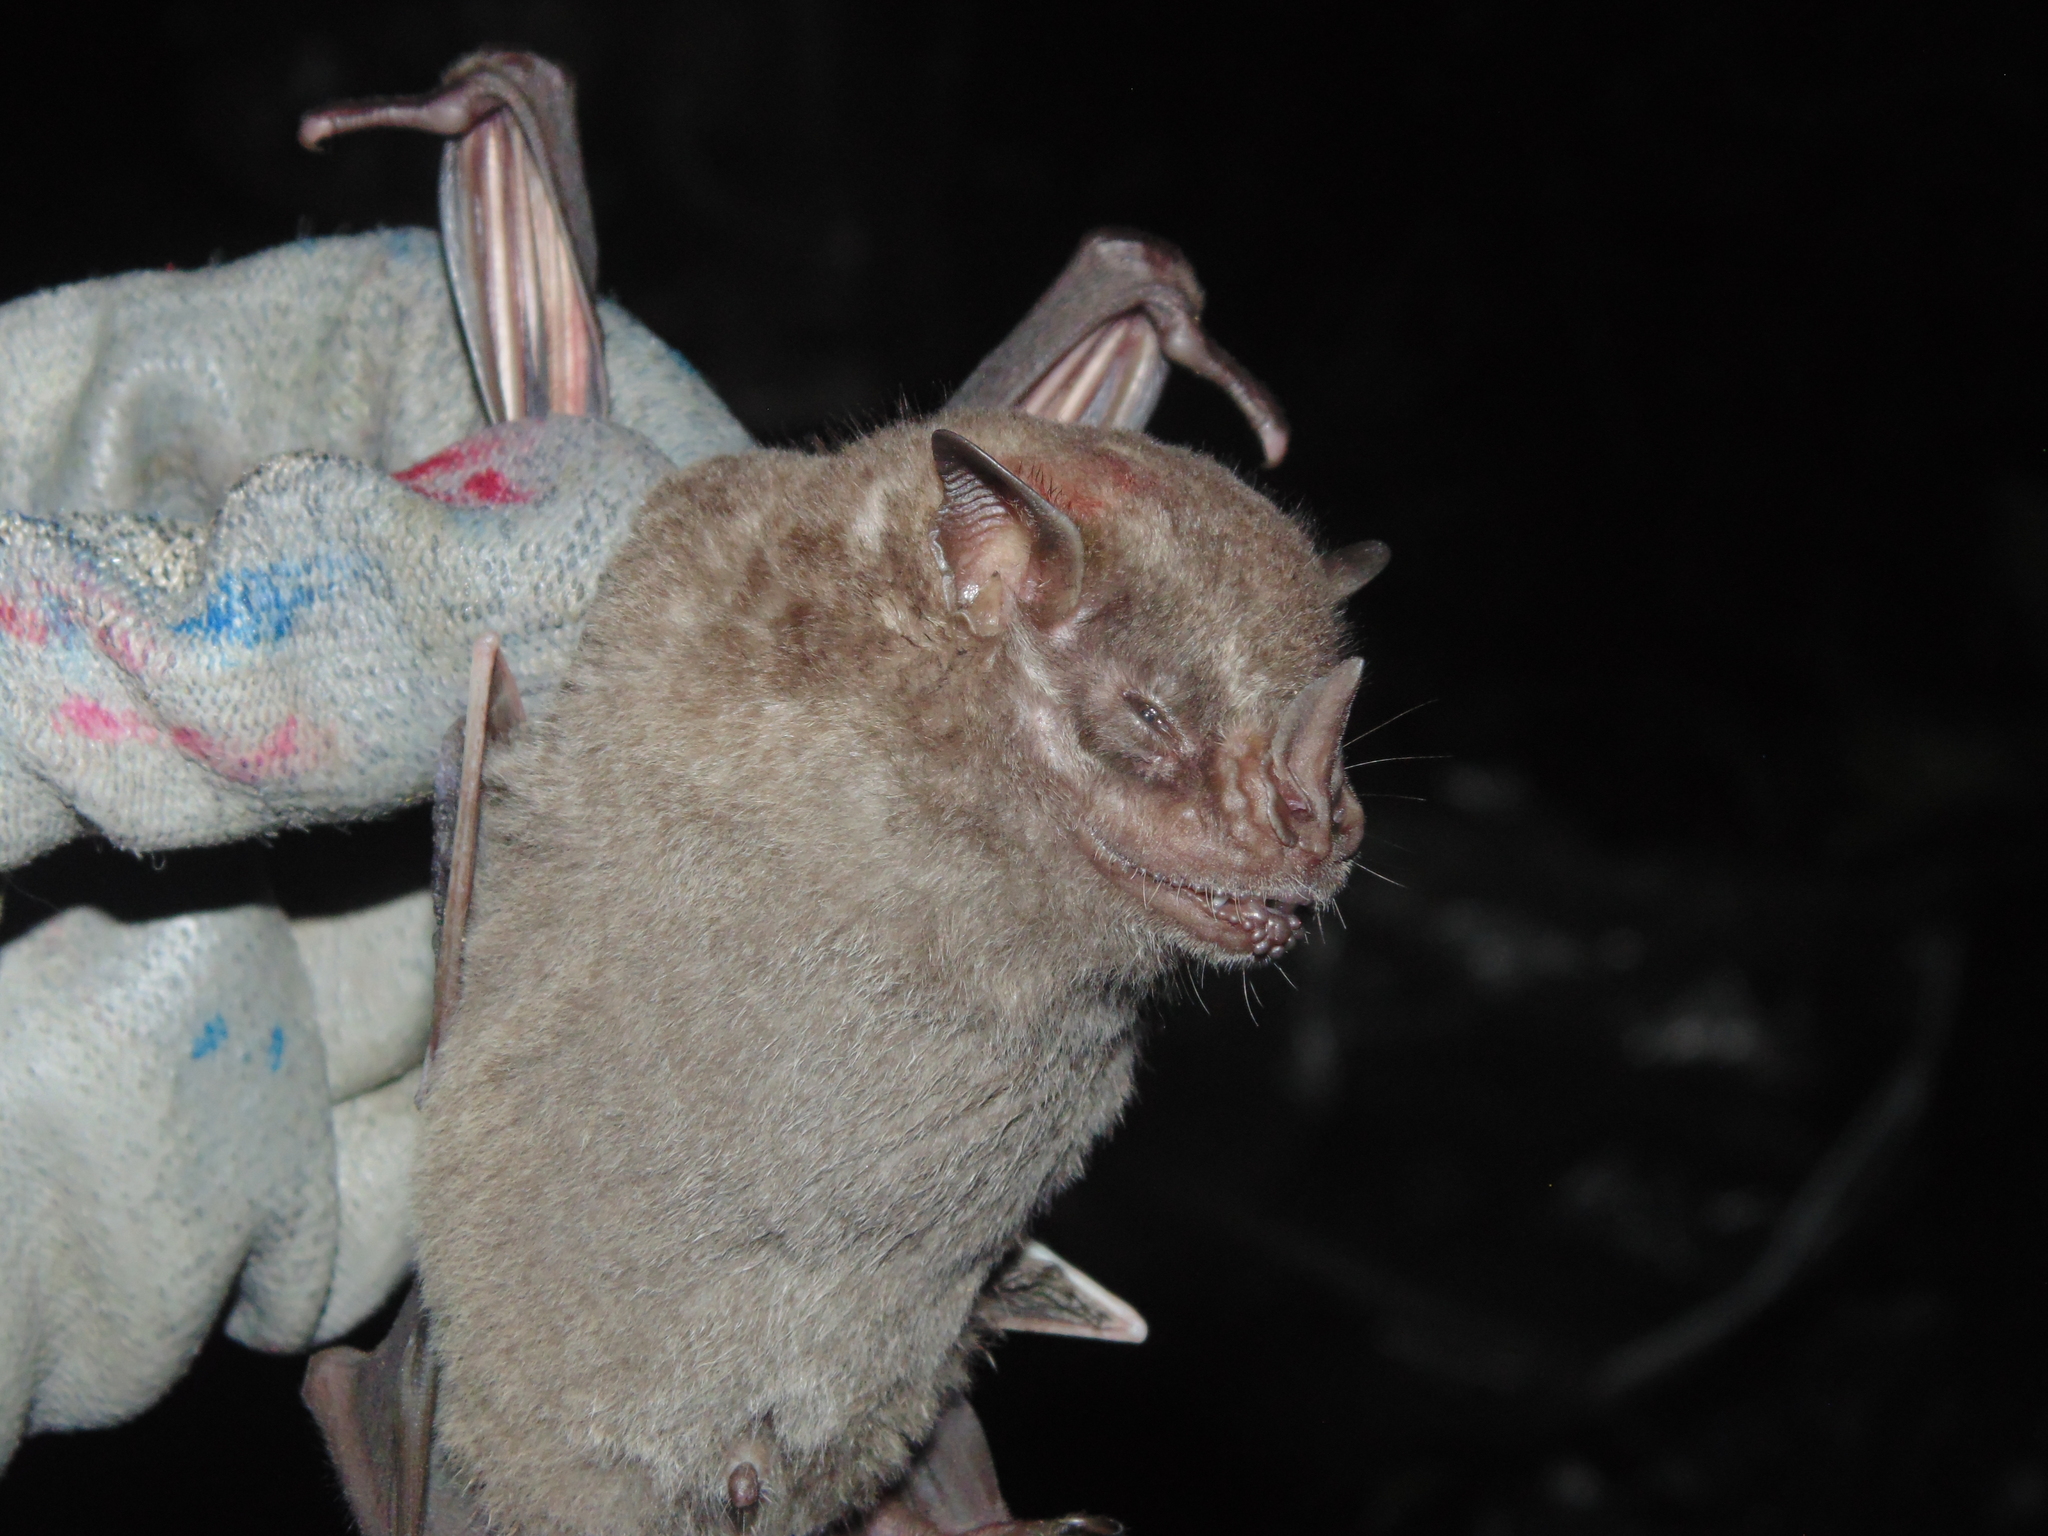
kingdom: Animalia
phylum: Chordata
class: Mammalia
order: Chiroptera
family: Phyllostomidae
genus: Artibeus
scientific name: Artibeus fimbriatus
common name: Fringed fruit-eating bat
